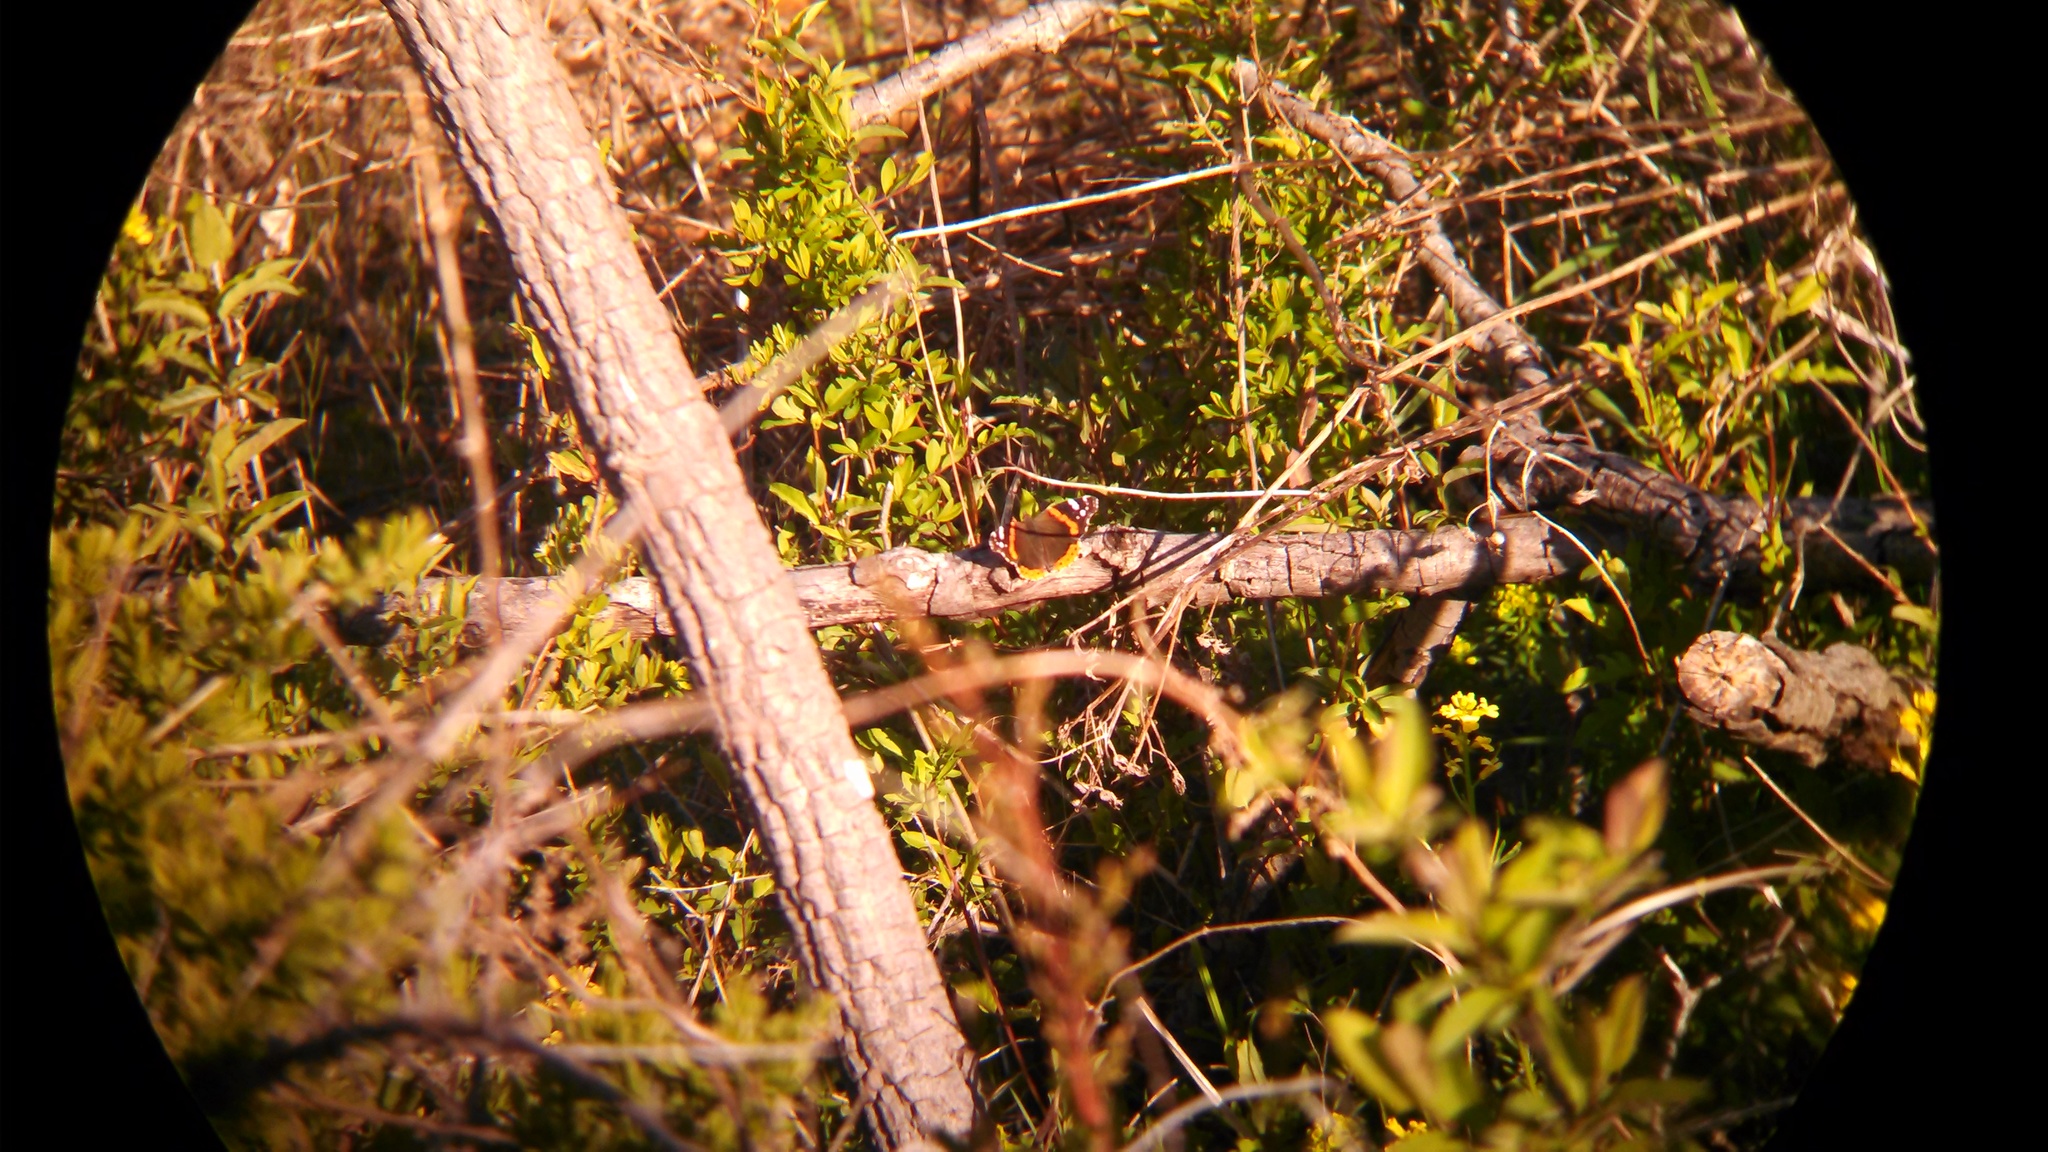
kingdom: Animalia
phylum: Arthropoda
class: Insecta
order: Lepidoptera
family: Nymphalidae
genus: Vanessa
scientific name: Vanessa atalanta
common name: Red admiral
